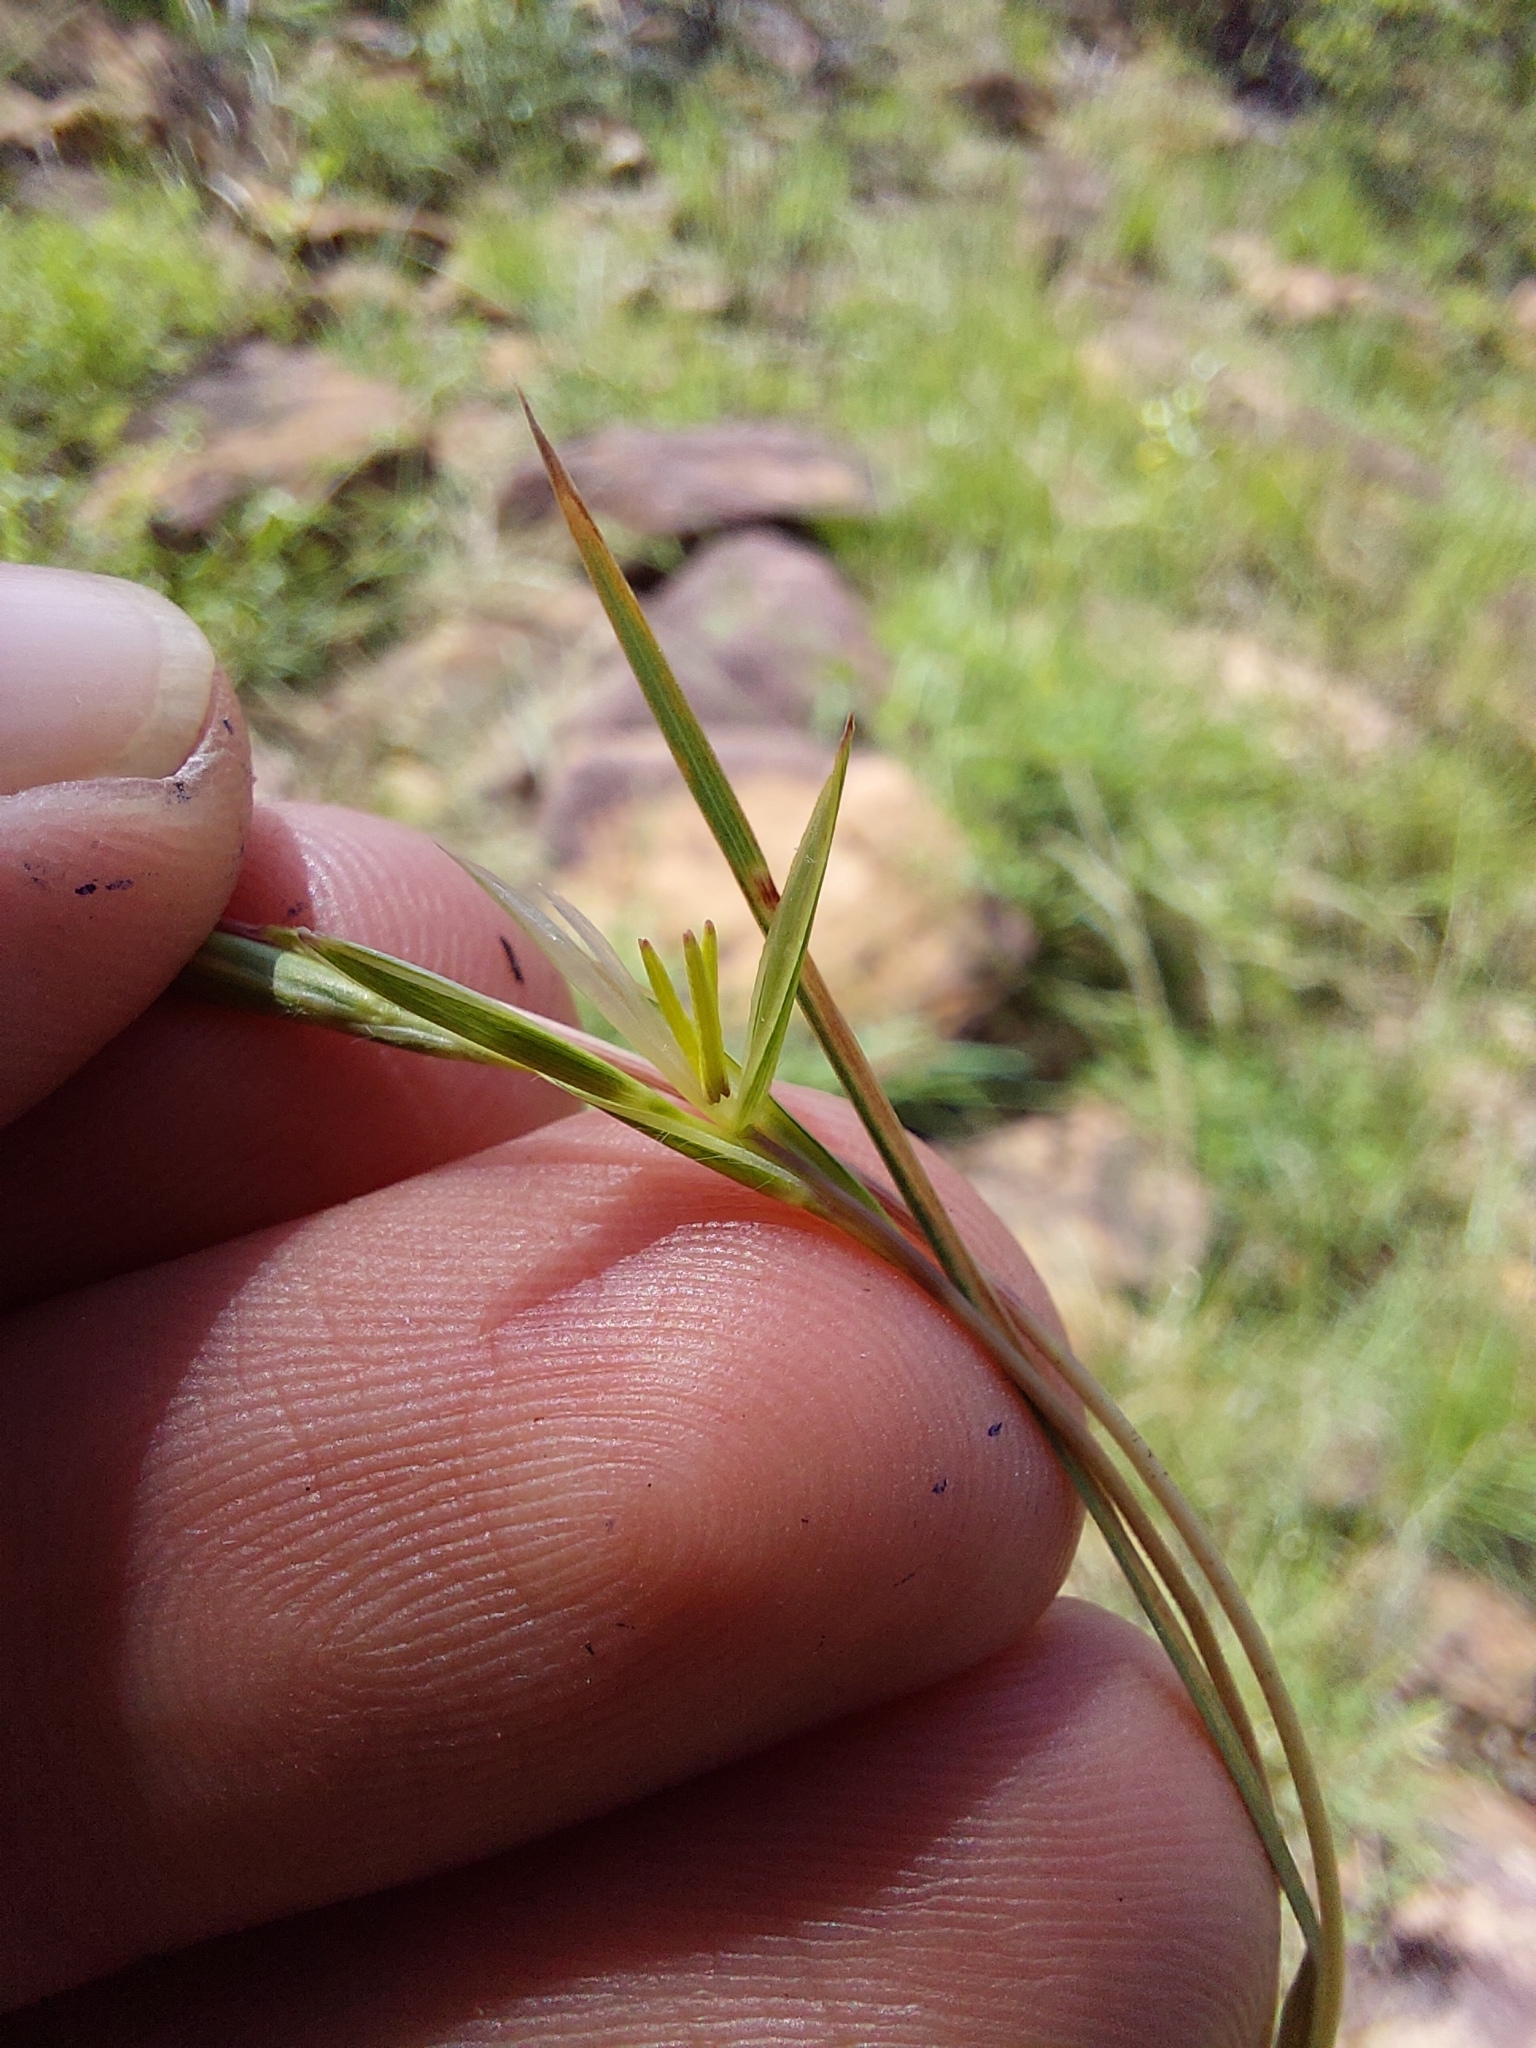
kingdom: Plantae
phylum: Tracheophyta
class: Liliopsida
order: Poales
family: Poaceae
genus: Heteropogon
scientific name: Heteropogon contortus
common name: Tanglehead
